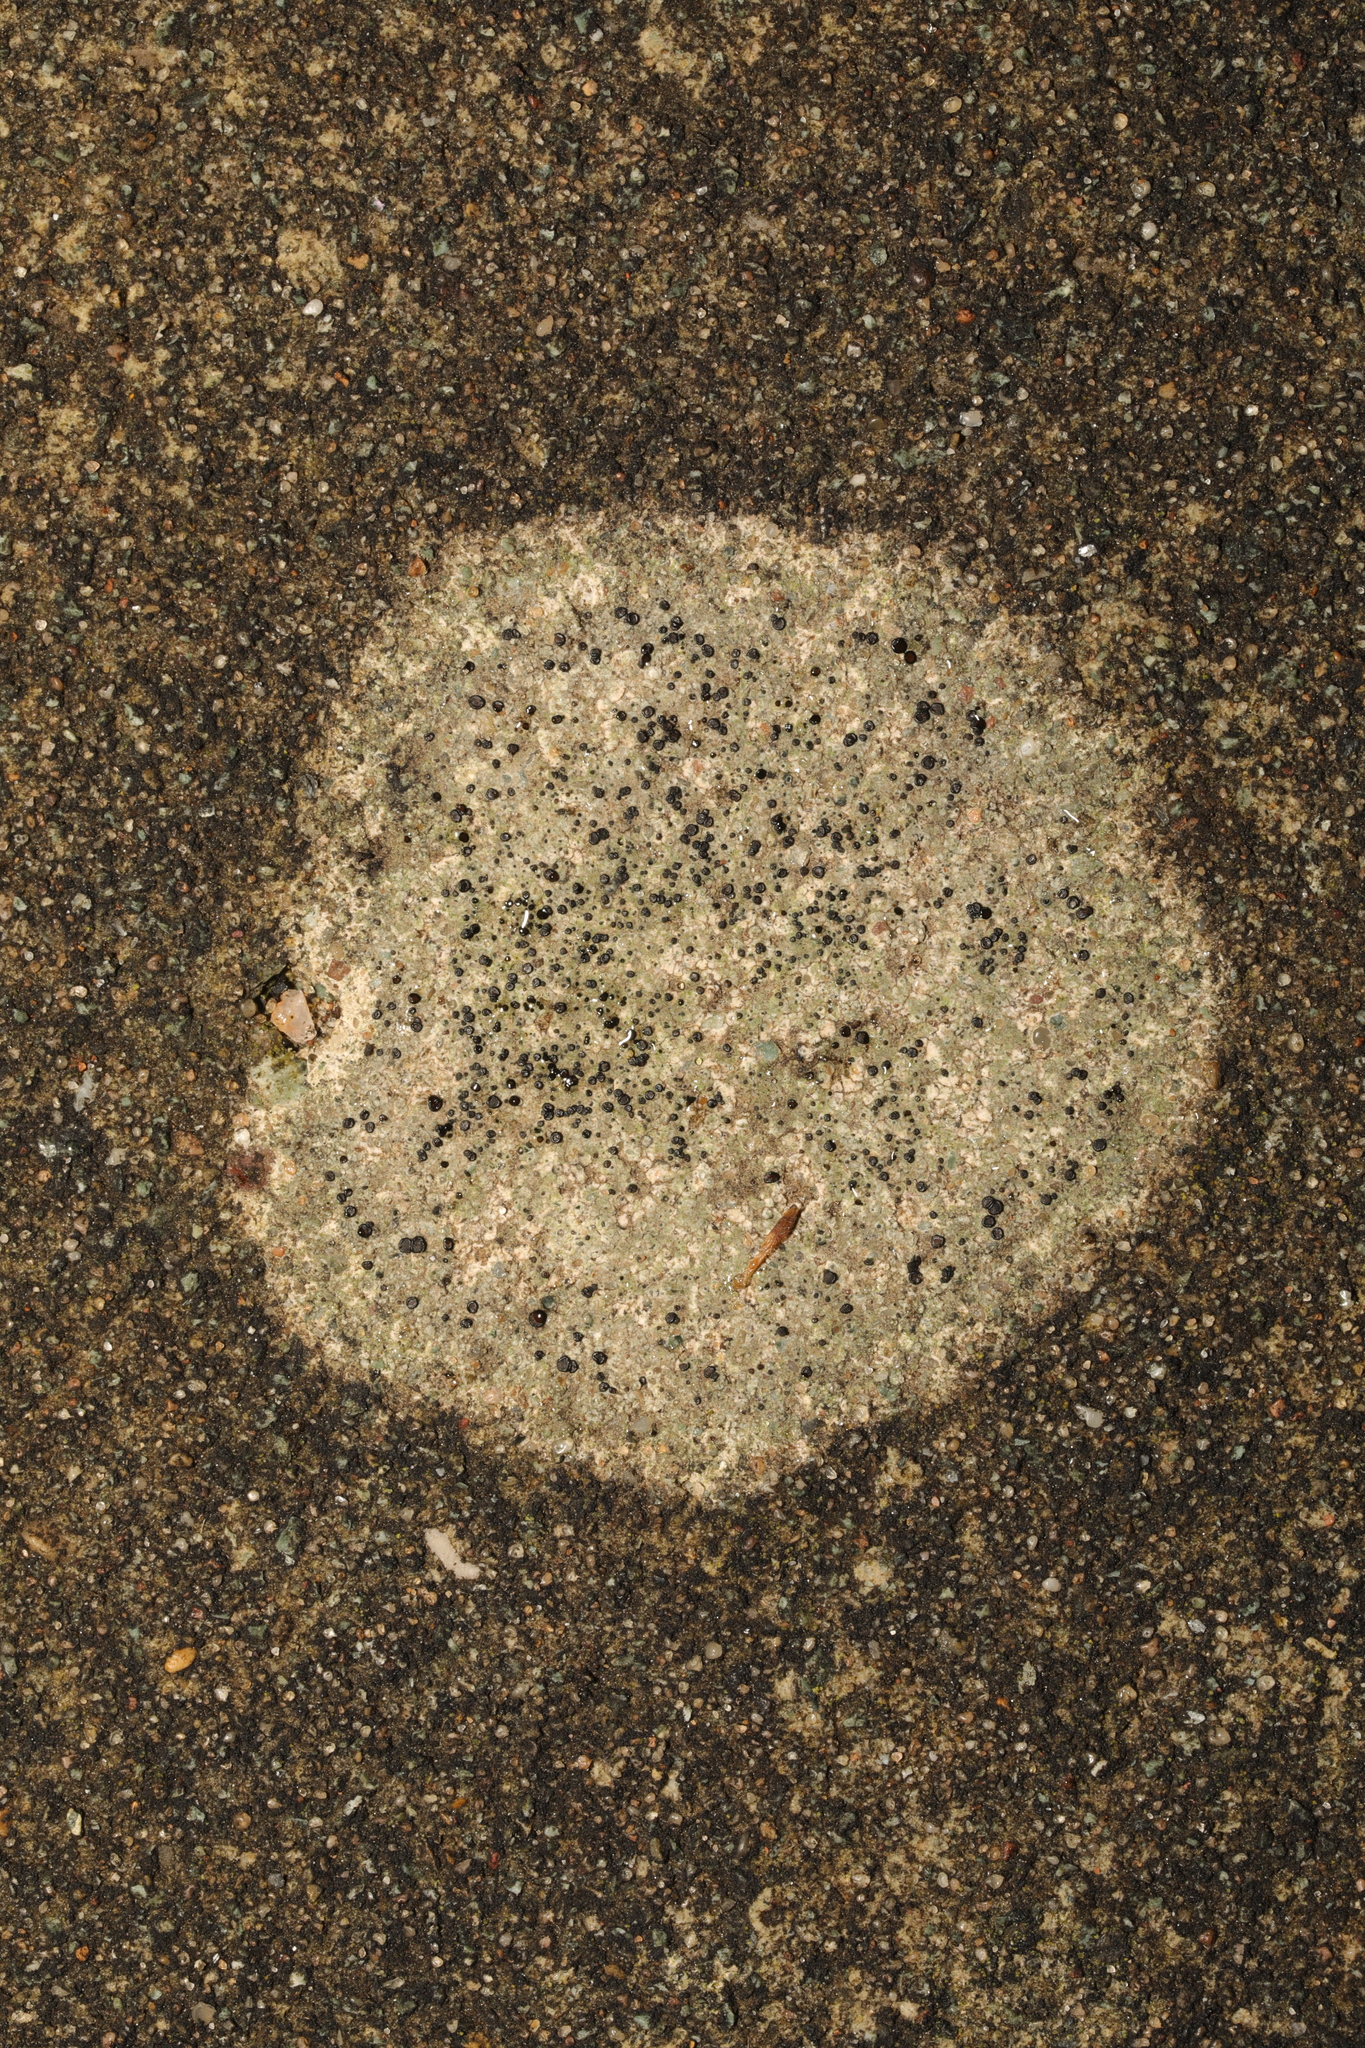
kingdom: Fungi
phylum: Ascomycota
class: Lecanoromycetes
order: Lecanorales
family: Lecanoraceae
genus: Lecidella
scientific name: Lecidella stigmatea
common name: Limestone disc lichen
